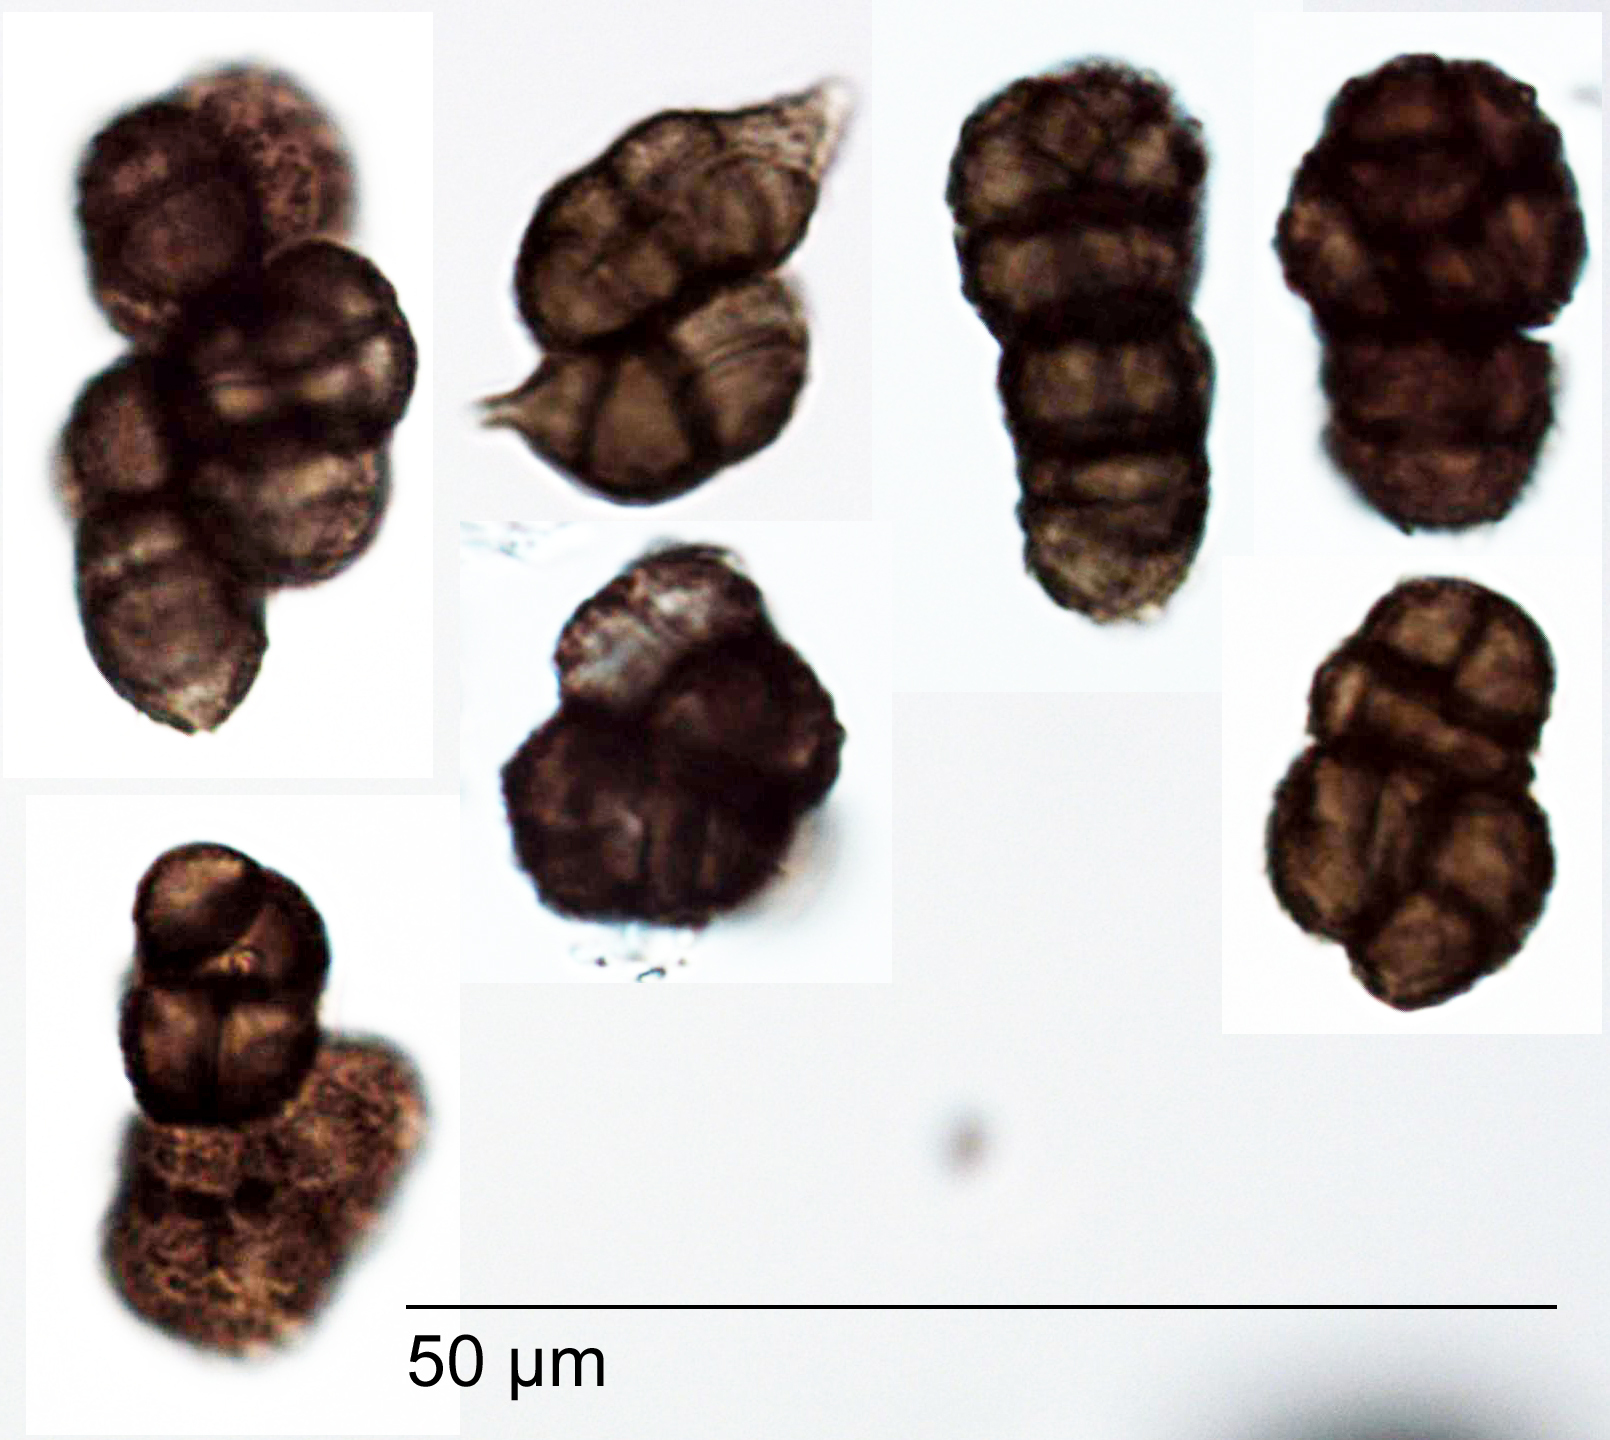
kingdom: Fungi
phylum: Ascomycota
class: Leotiomycetes
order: Helotiales
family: Mollisiaceae
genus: Trimmatostroma
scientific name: Trimmatostroma cordae
